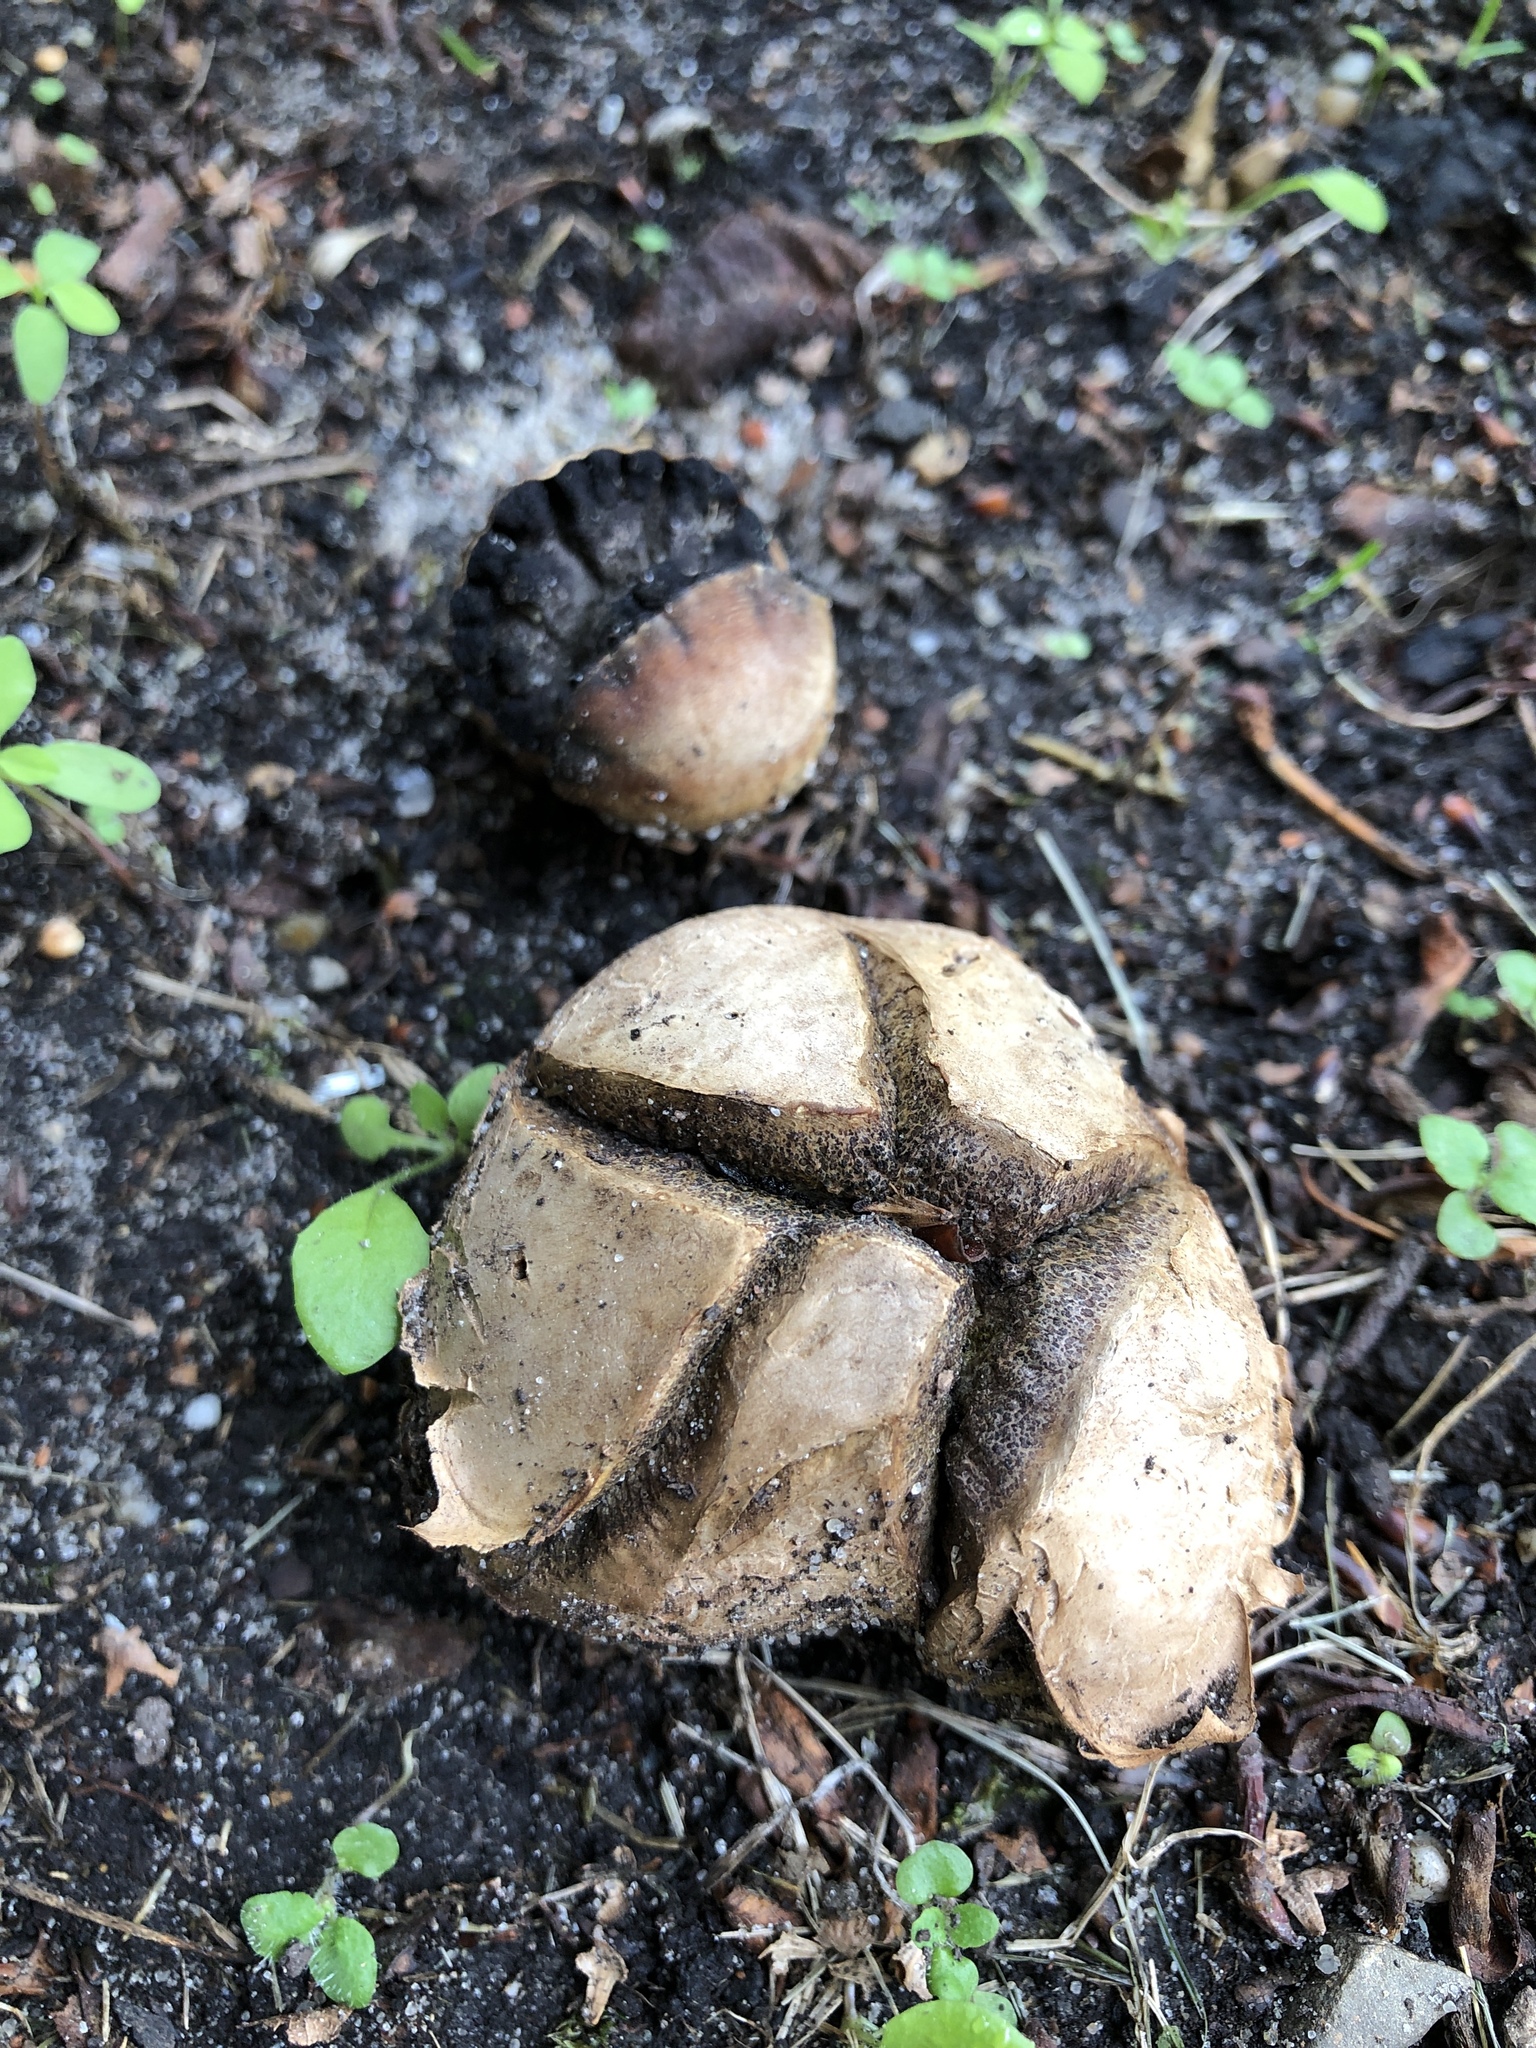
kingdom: Fungi
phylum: Basidiomycota
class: Agaricomycetes
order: Boletales
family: Sclerodermataceae
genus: Scleroderma
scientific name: Scleroderma citrinum
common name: Common earthball
